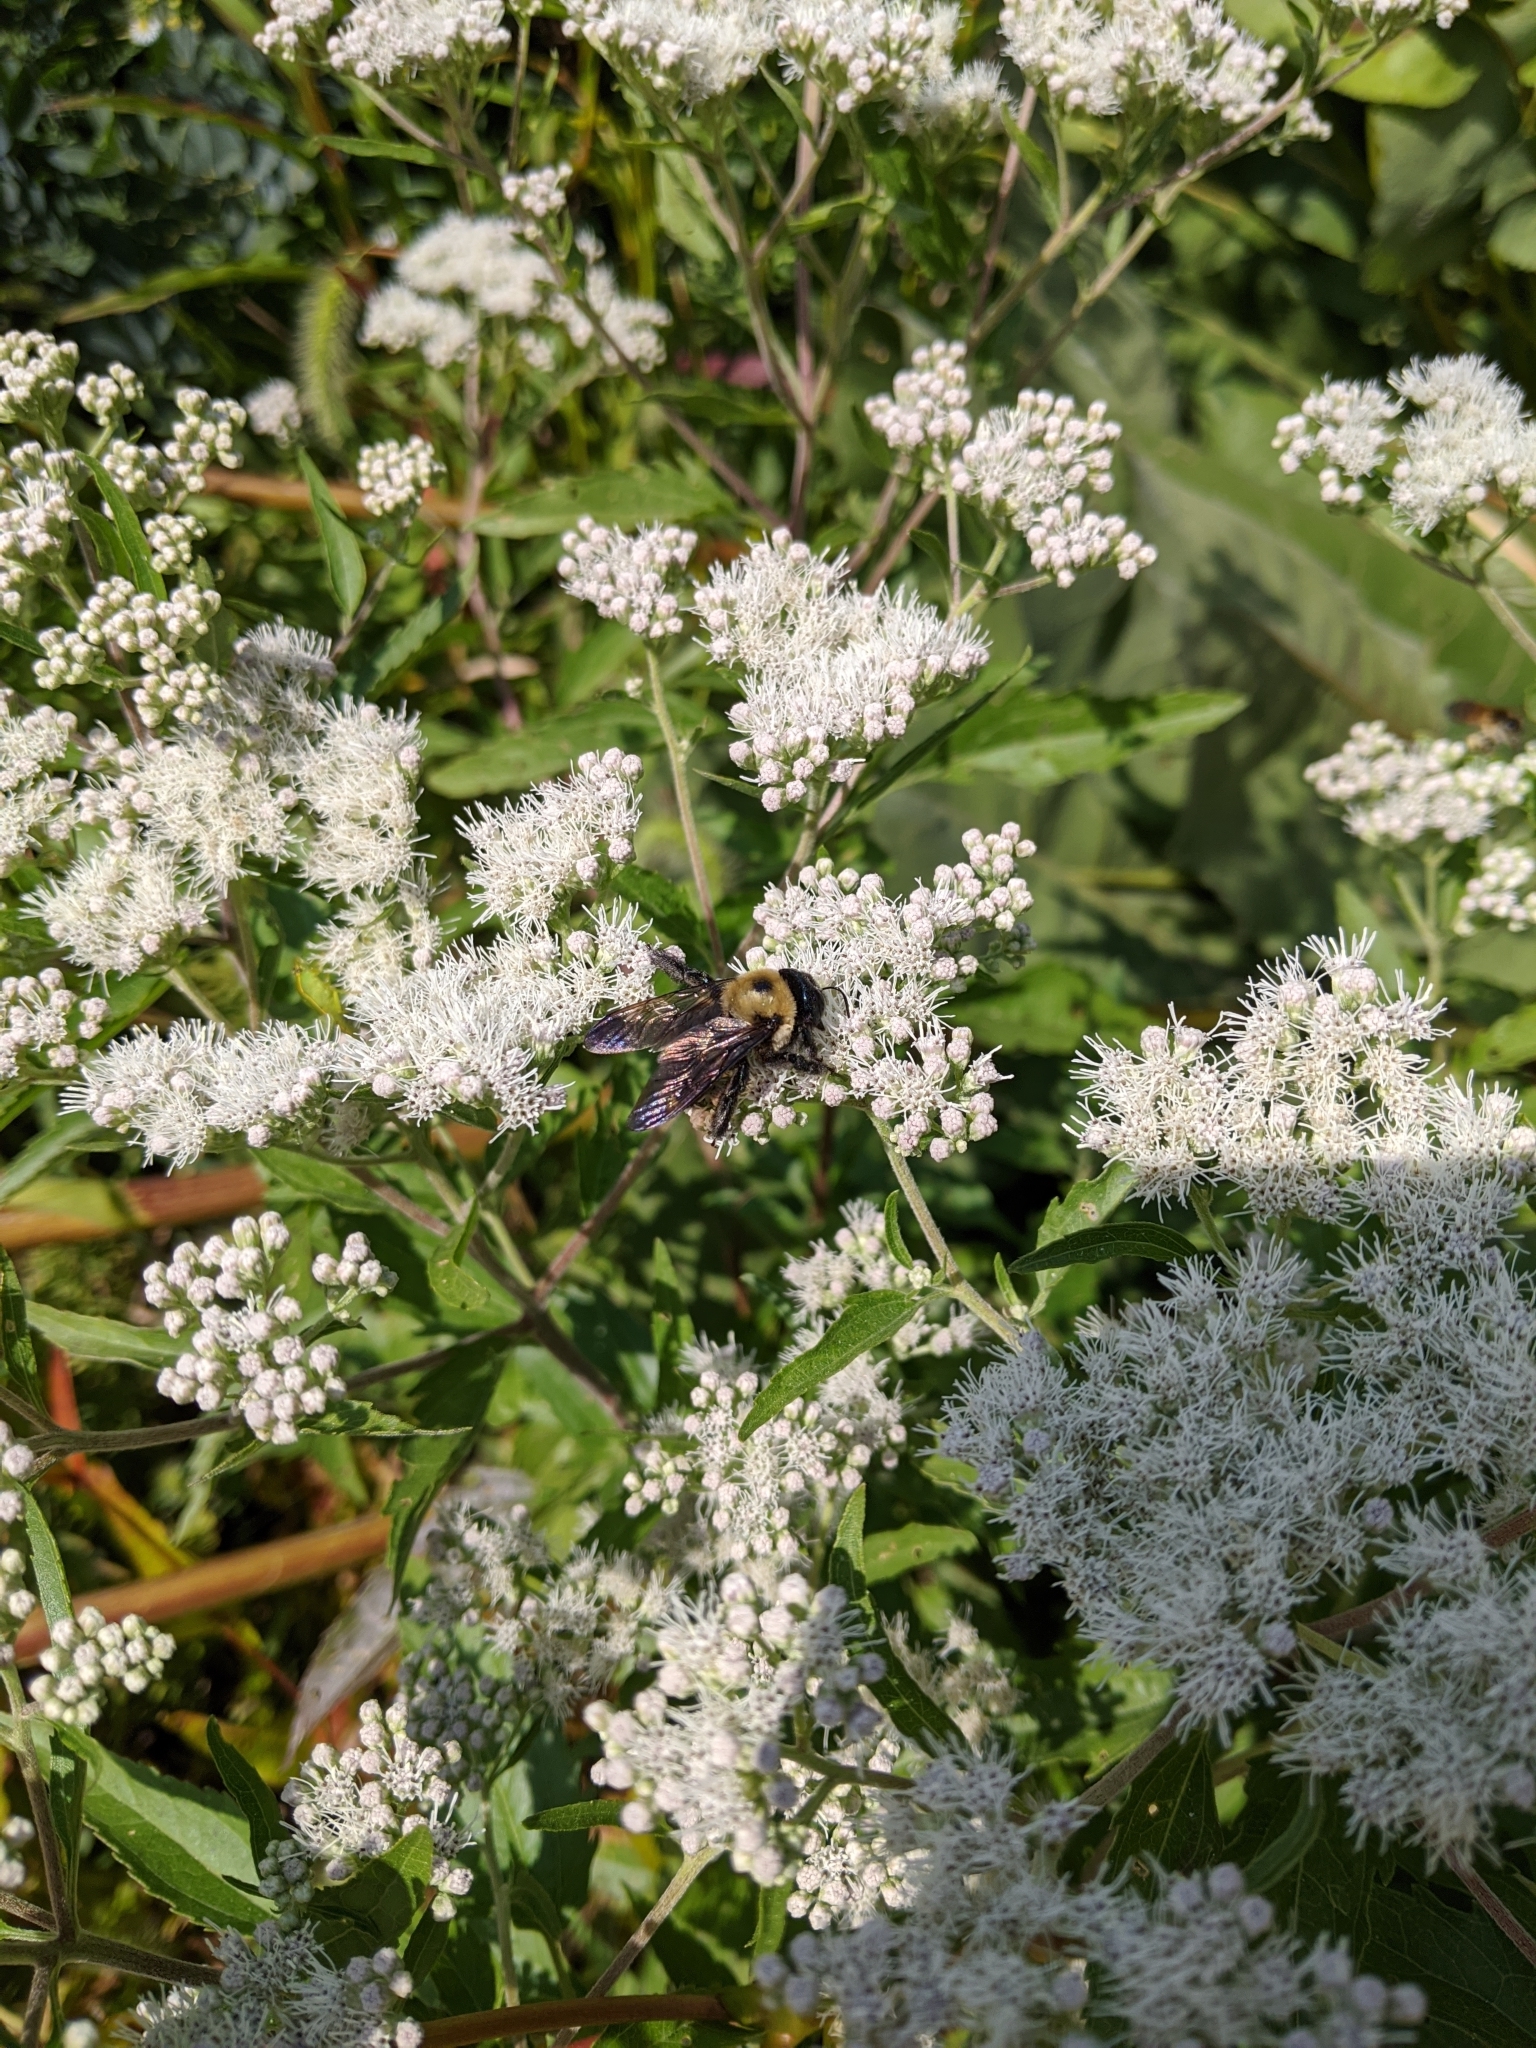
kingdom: Animalia
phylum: Arthropoda
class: Insecta
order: Hymenoptera
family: Apidae
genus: Xylocopa
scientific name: Xylocopa virginica
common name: Carpenter bee
